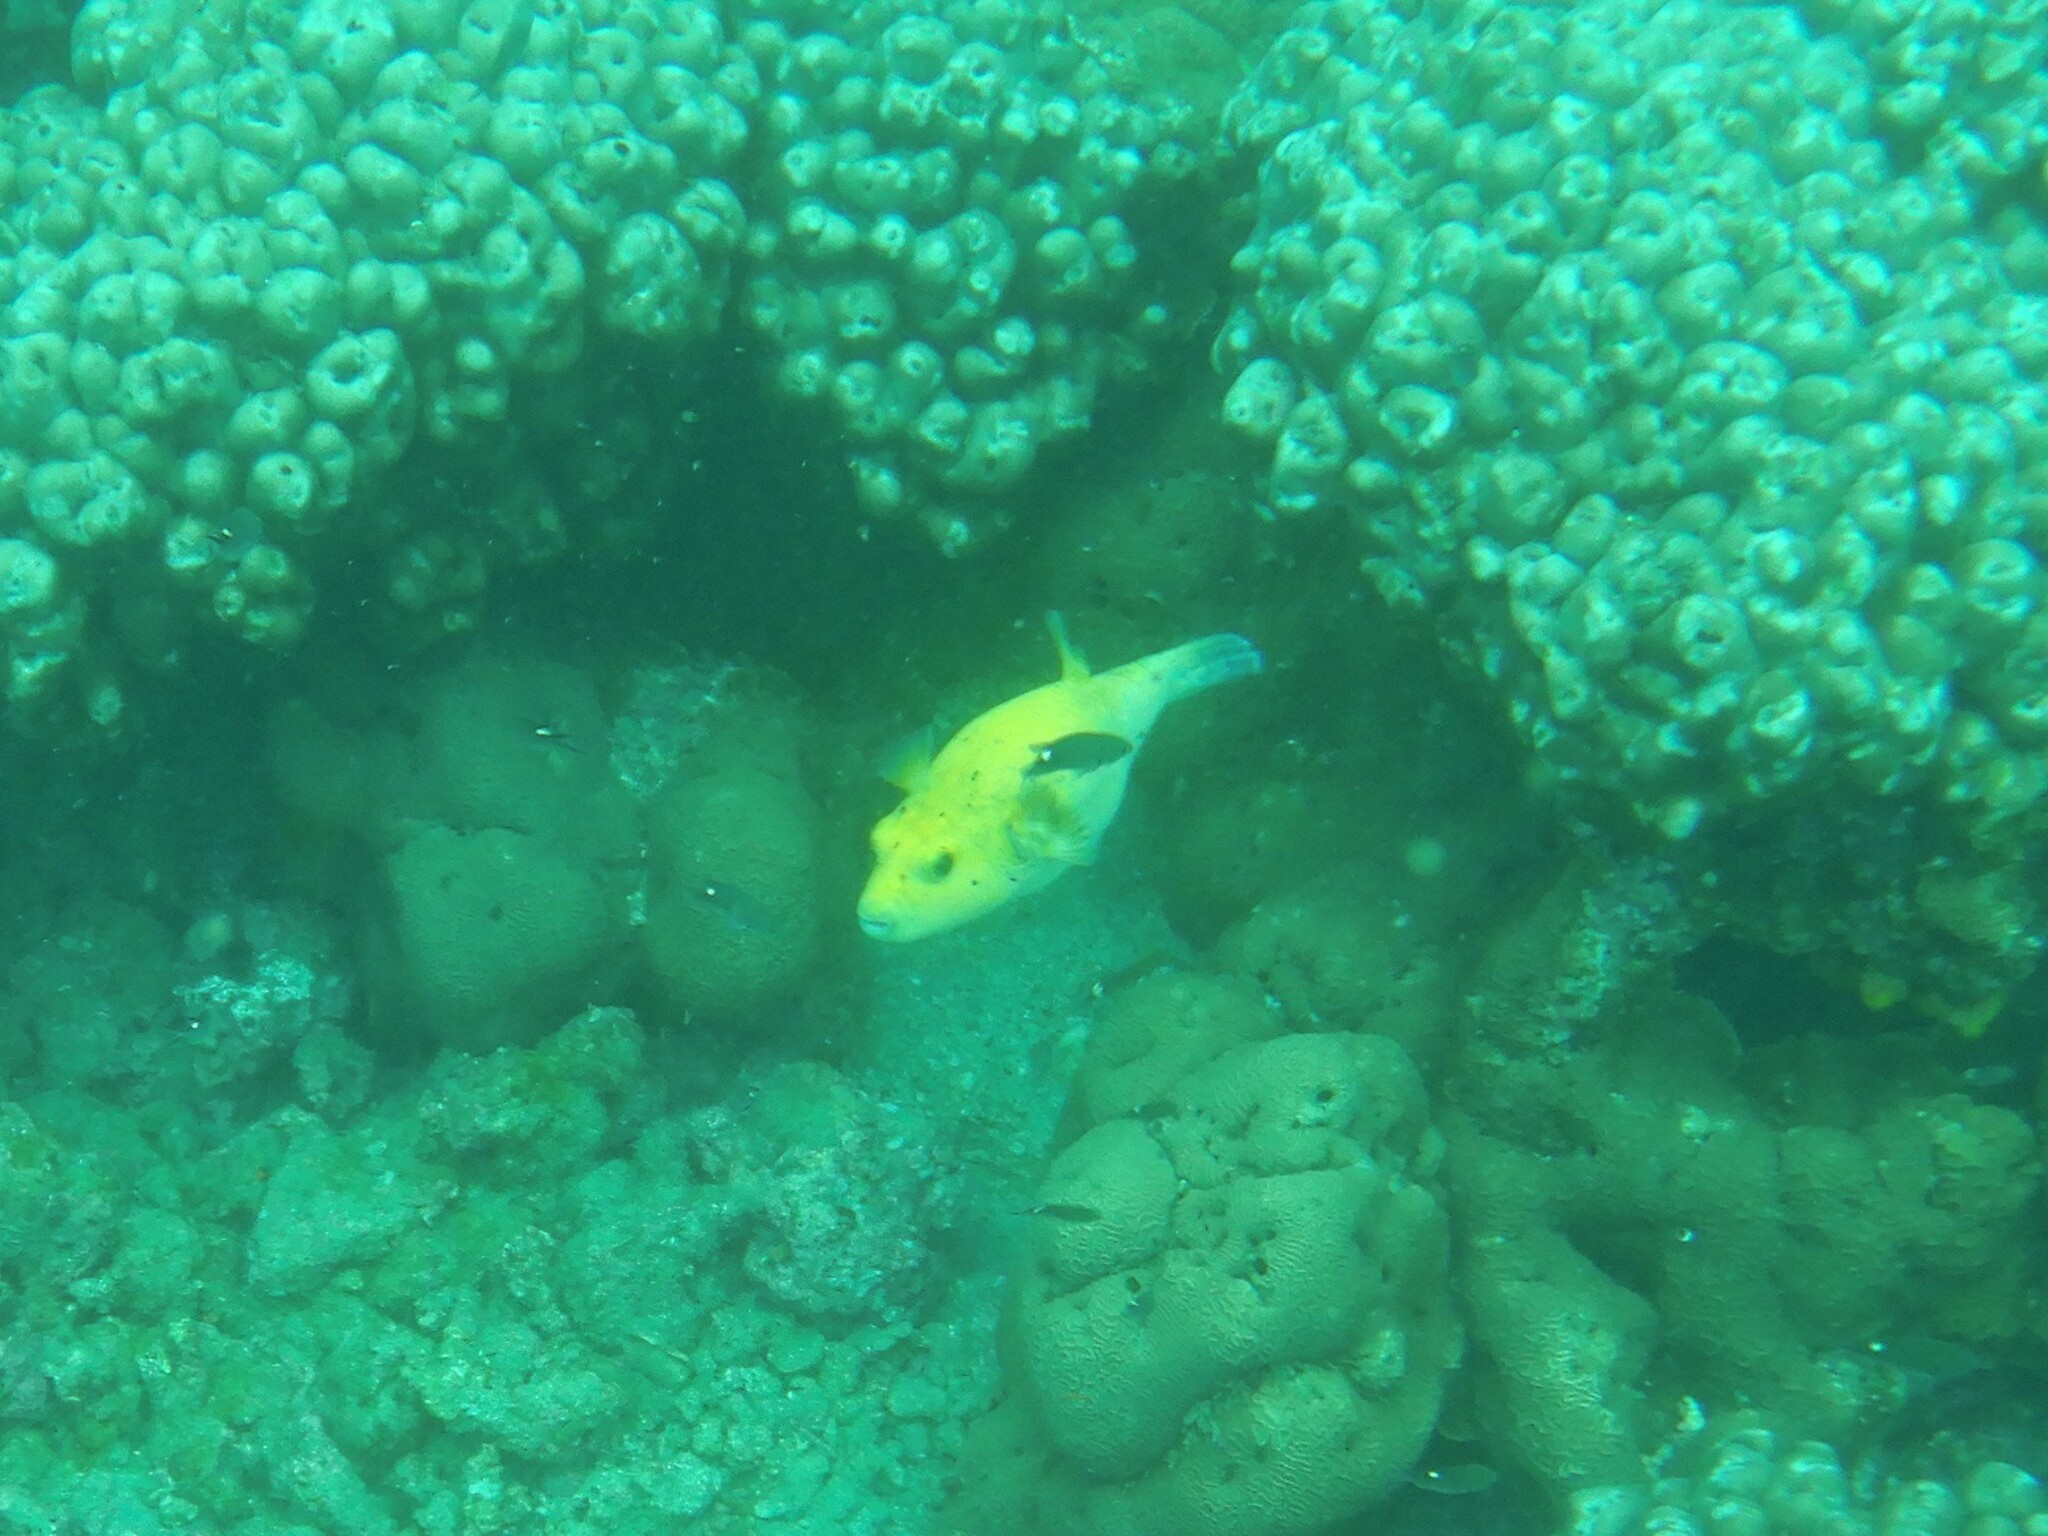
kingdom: Animalia
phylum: Chordata
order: Tetraodontiformes
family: Tetraodontidae
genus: Arothron
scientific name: Arothron meleagris
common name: Guinea-fowl pufferfish
